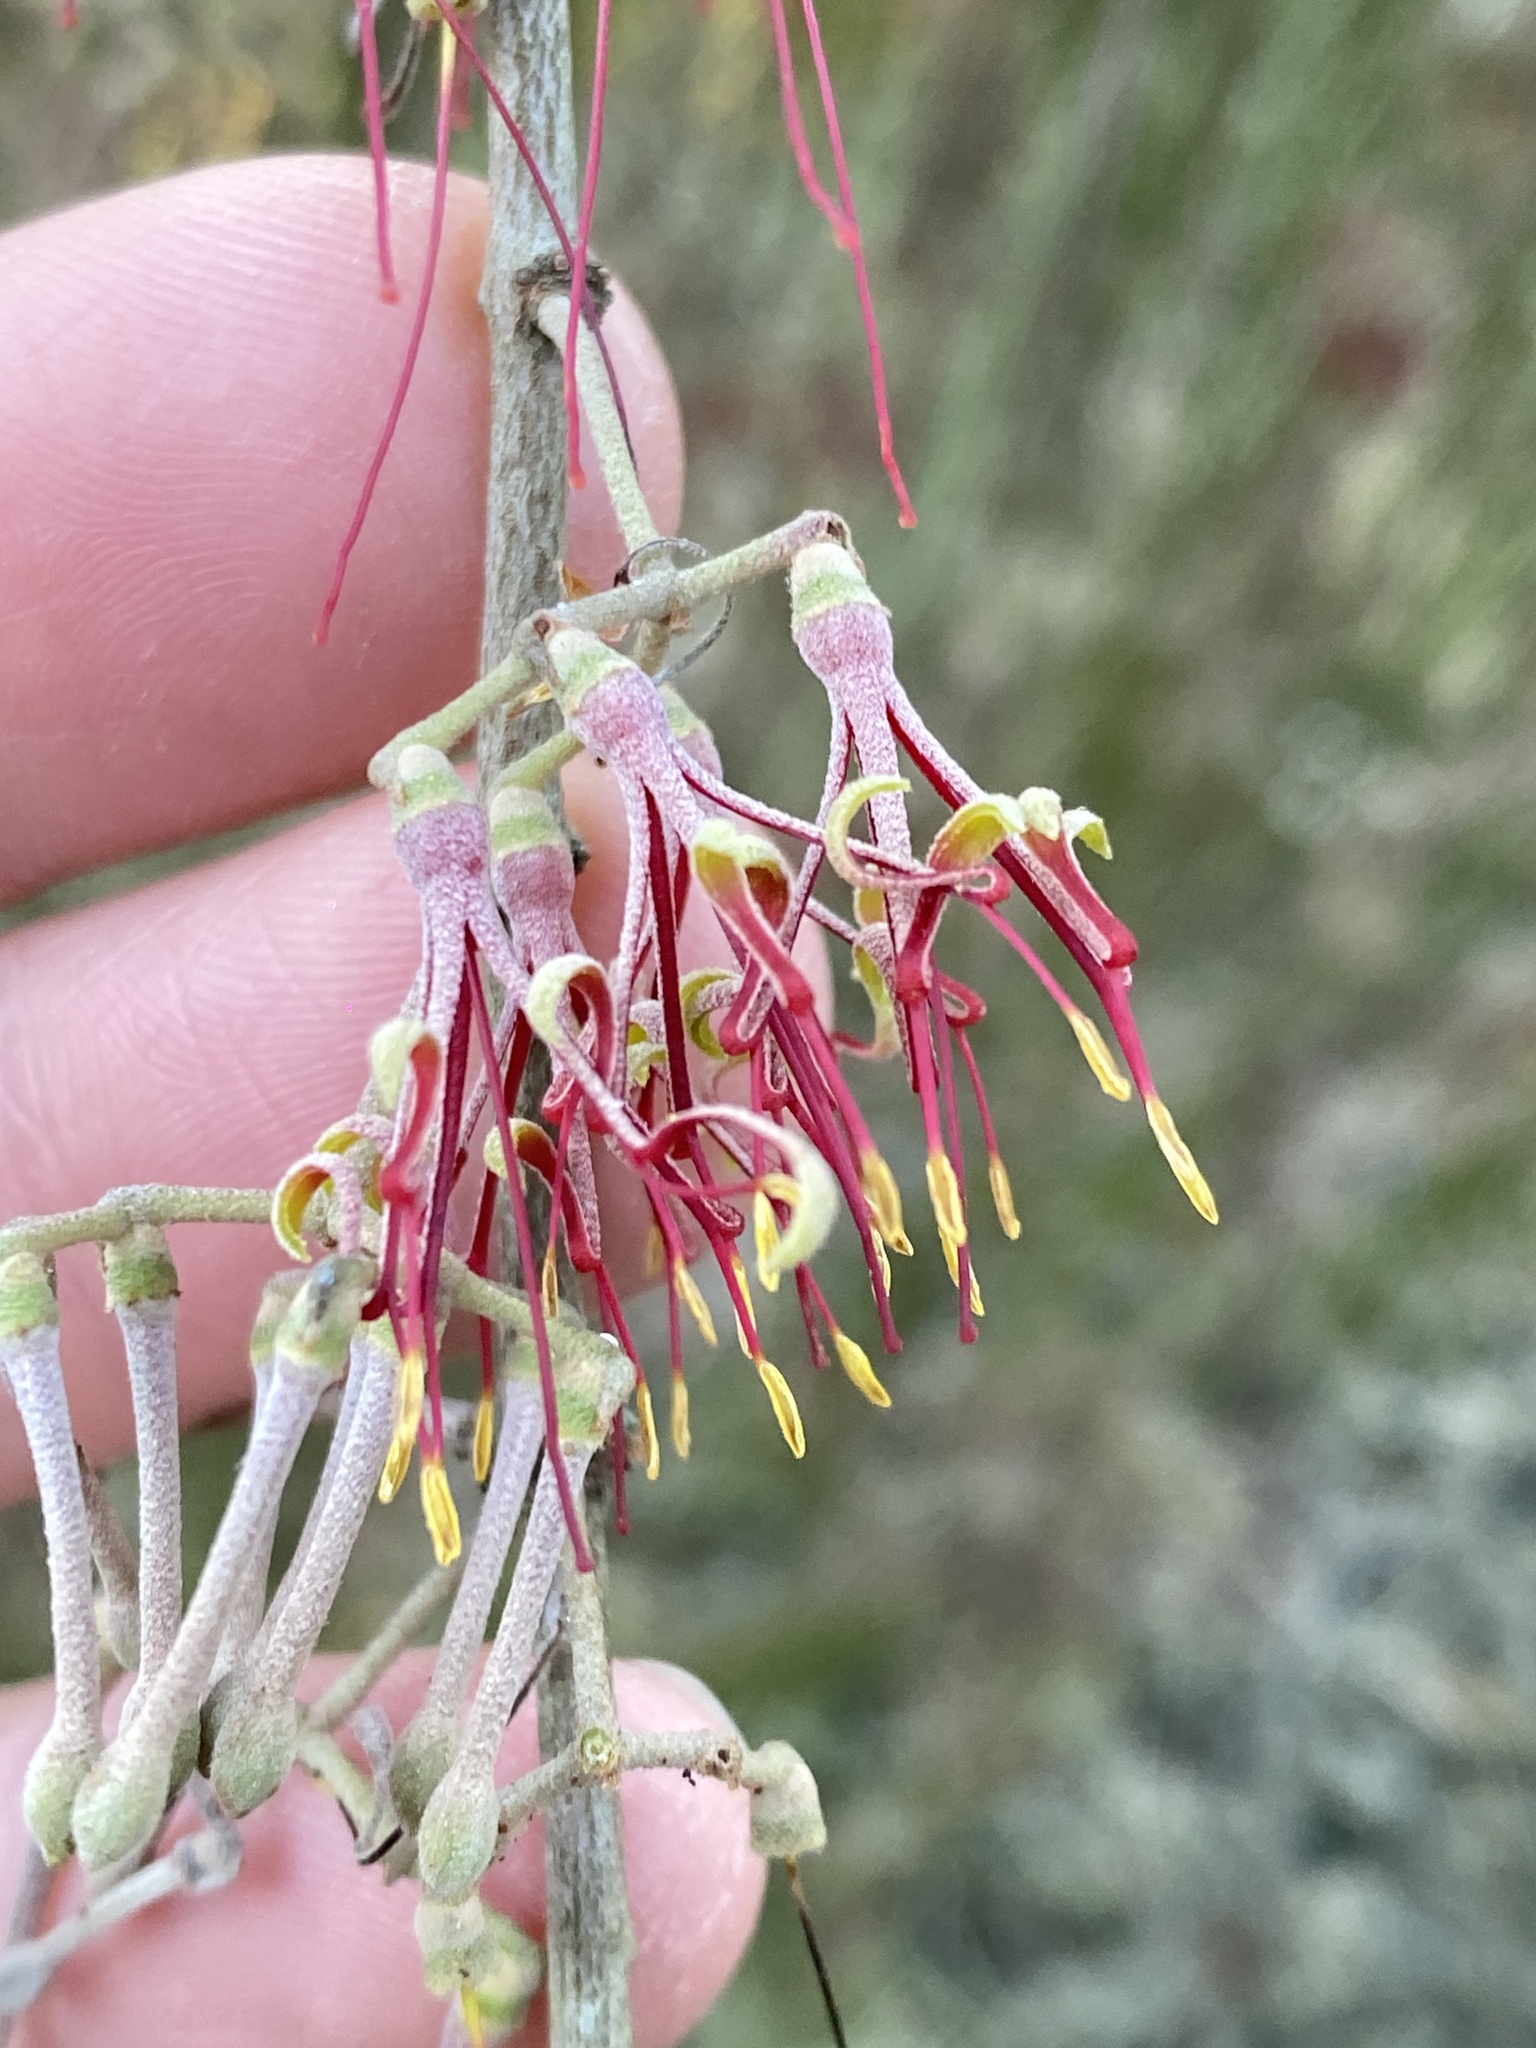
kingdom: Plantae
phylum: Tracheophyta
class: Magnoliopsida
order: Santalales
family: Loranthaceae
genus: Amyema
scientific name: Amyema cambagei
